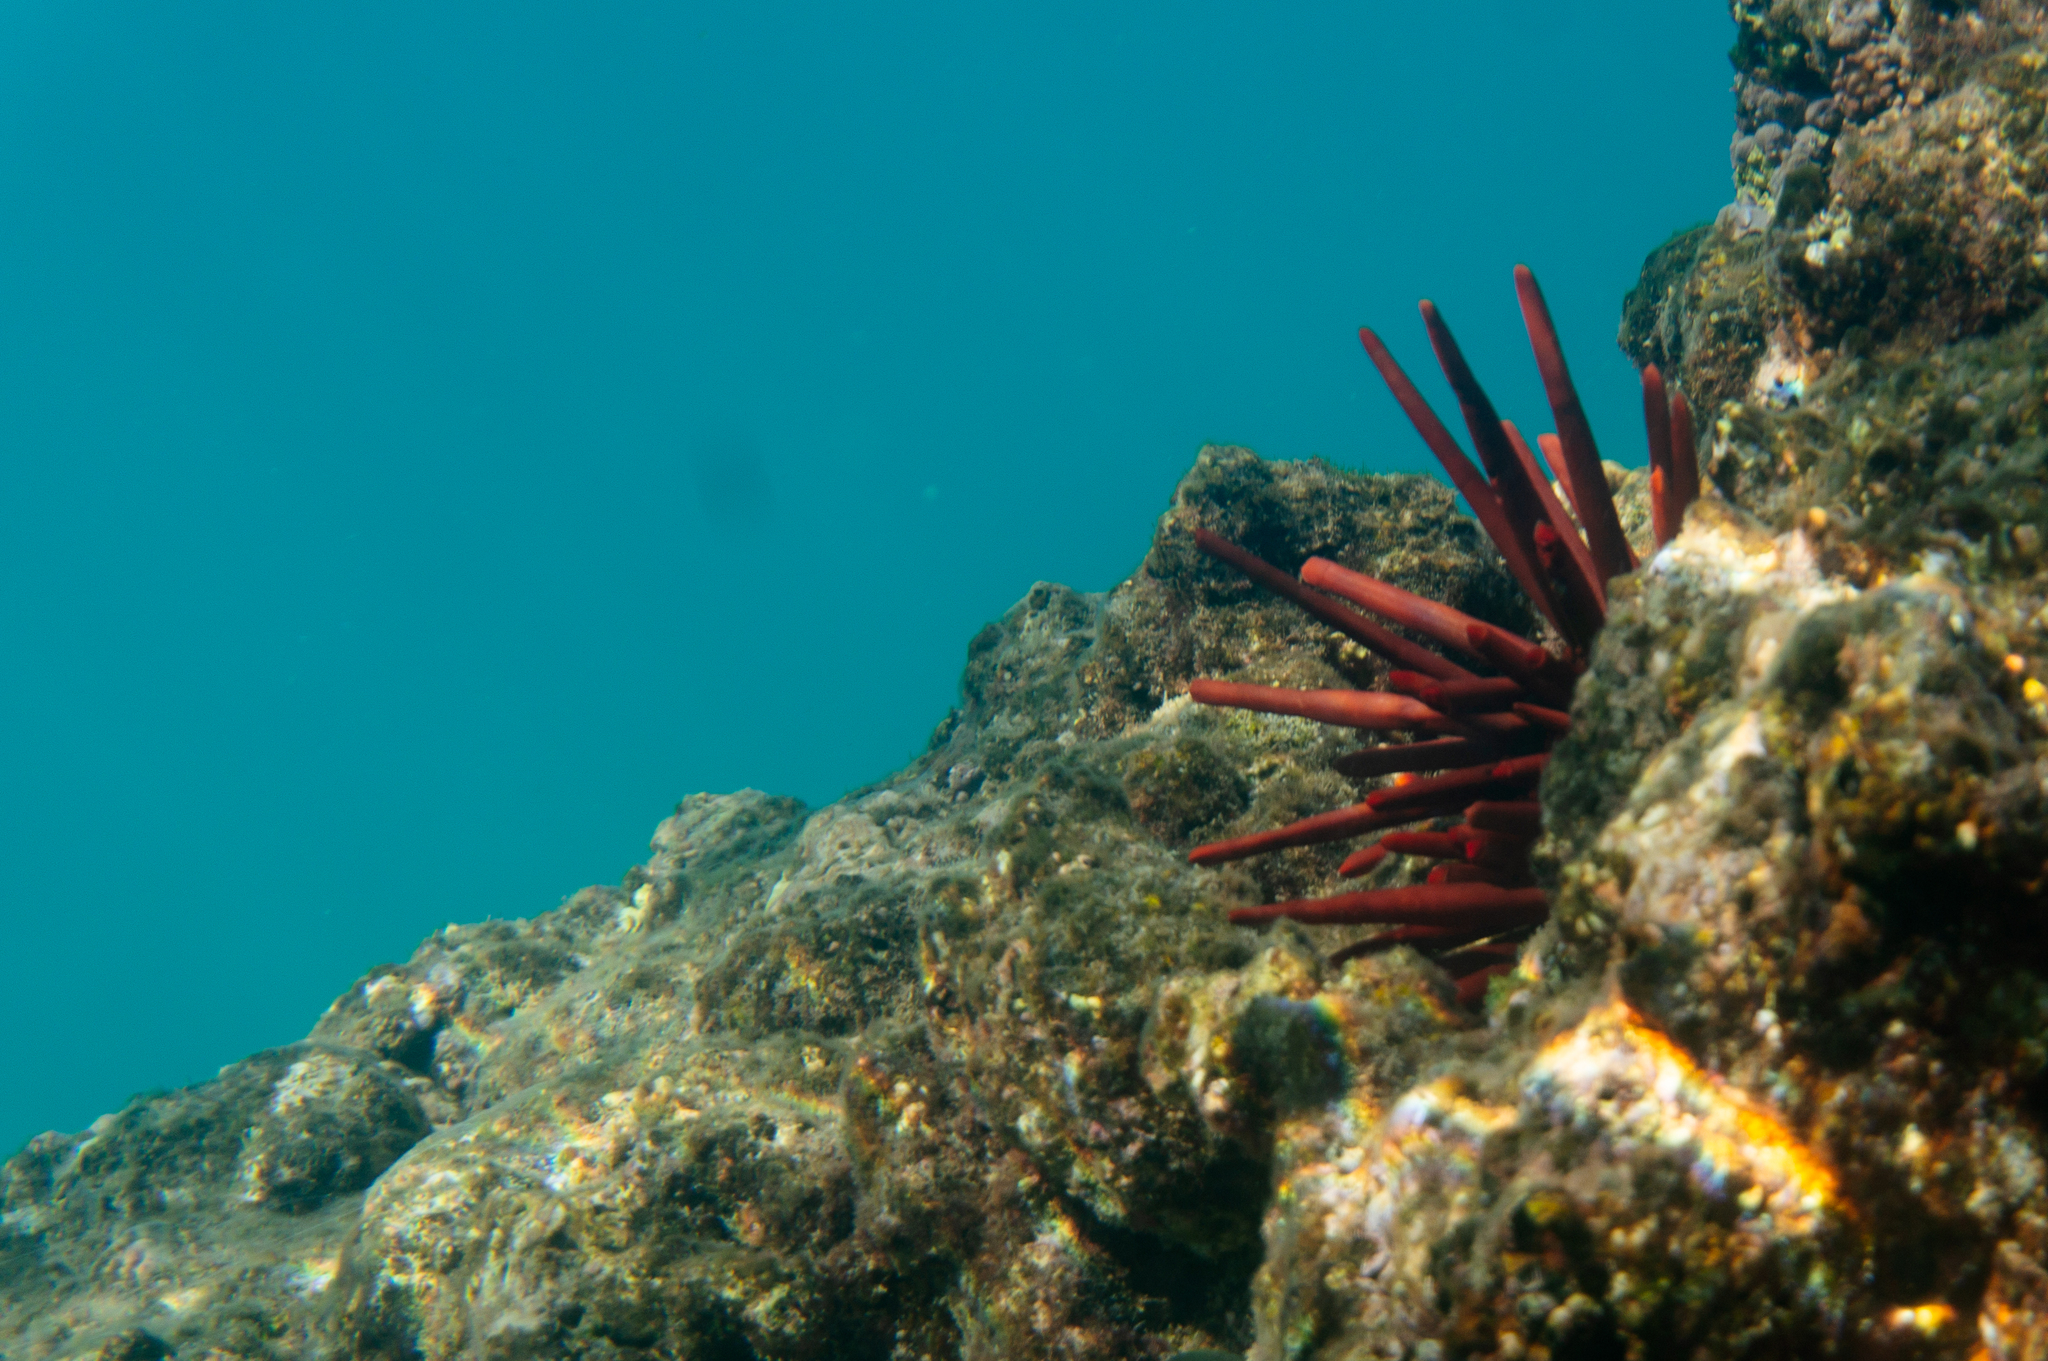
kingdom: Animalia
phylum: Echinodermata
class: Echinoidea
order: Camarodonta
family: Echinometridae
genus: Heterocentrotus
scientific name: Heterocentrotus mamillatus
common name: Slate pencil urchin
